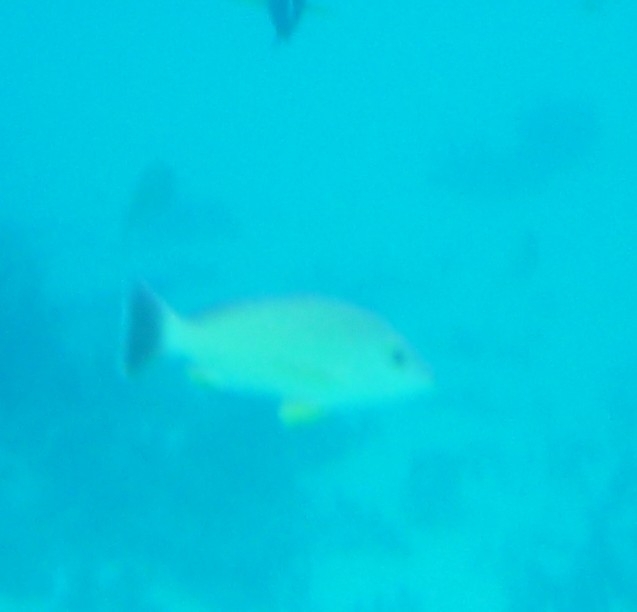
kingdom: Animalia
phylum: Chordata
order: Perciformes
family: Lutjanidae
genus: Lutjanus
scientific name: Lutjanus fulvus
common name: Blacktail snapper
